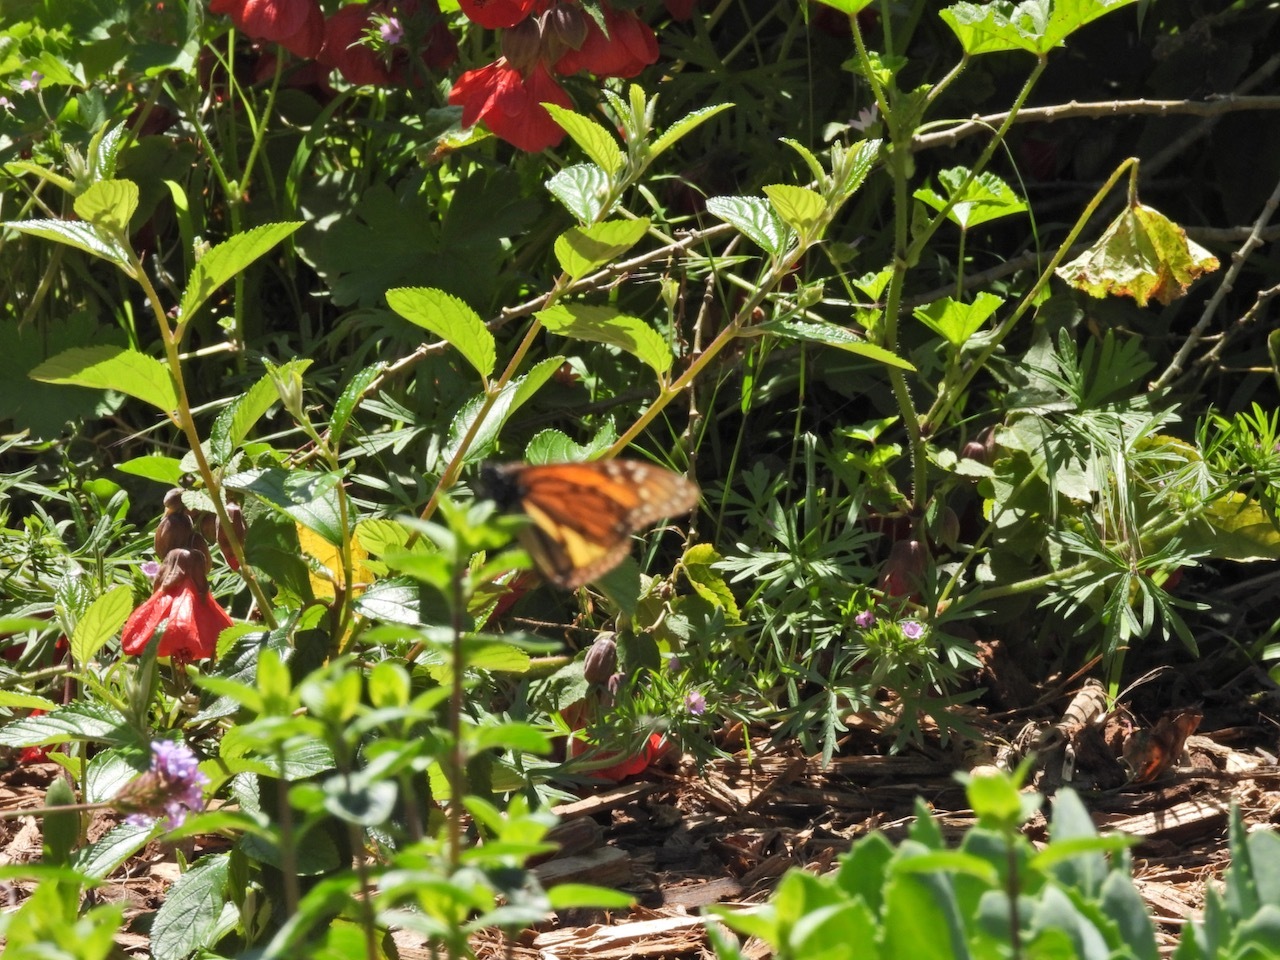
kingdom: Animalia
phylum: Arthropoda
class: Insecta
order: Lepidoptera
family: Nymphalidae
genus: Danaus
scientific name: Danaus plexippus
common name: Monarch
